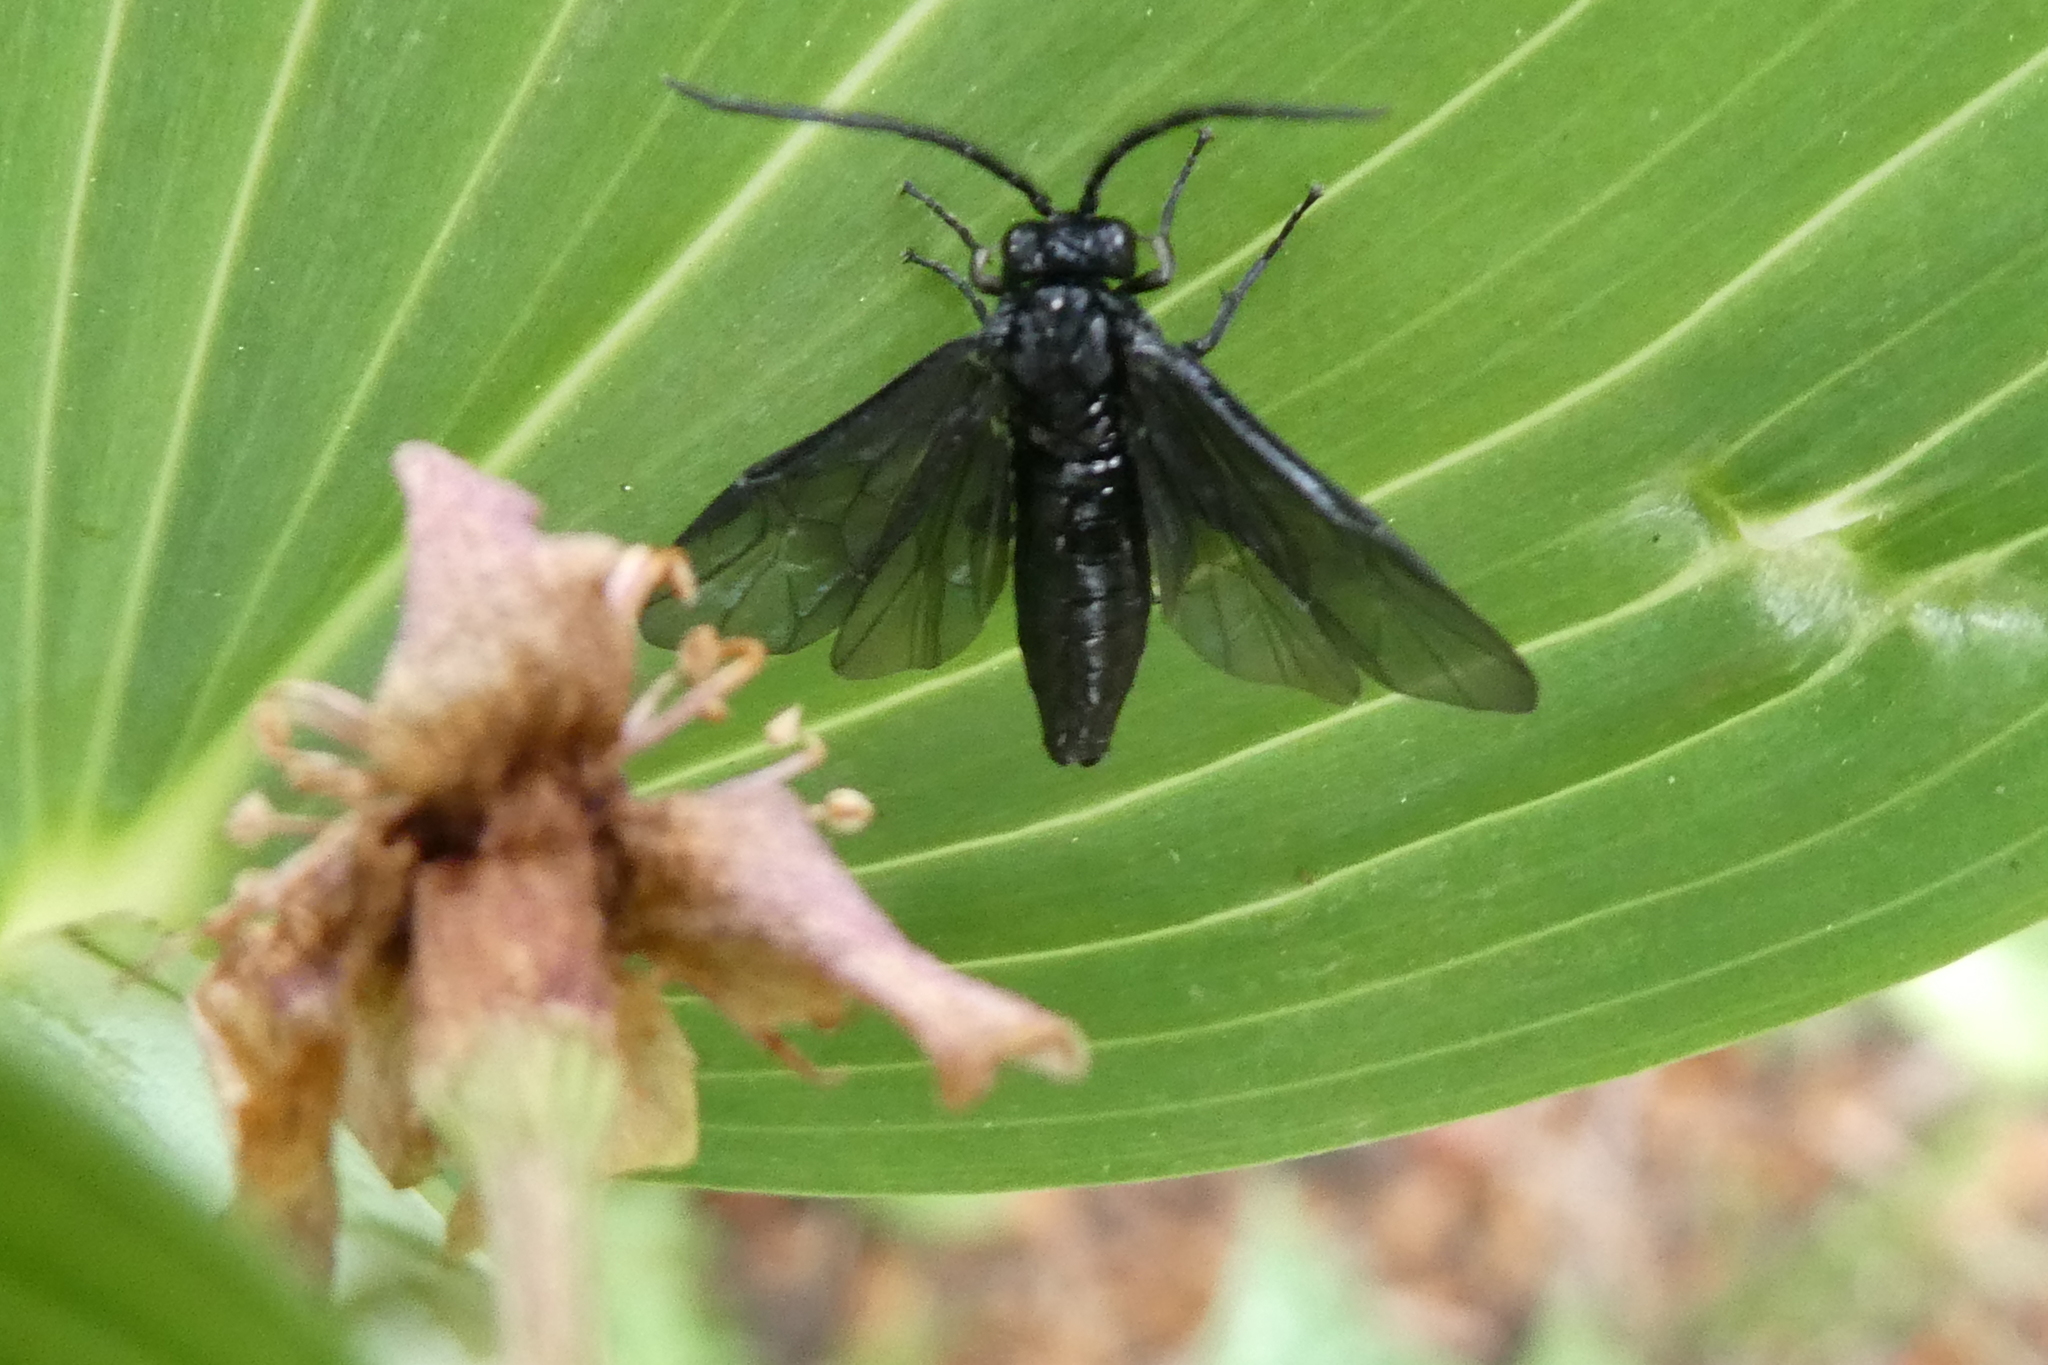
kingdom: Animalia
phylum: Arthropoda
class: Insecta
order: Hymenoptera
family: Tenthredinidae
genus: Phymatocera
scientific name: Phymatocera aterrima
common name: Solomon's-seal sawfly
